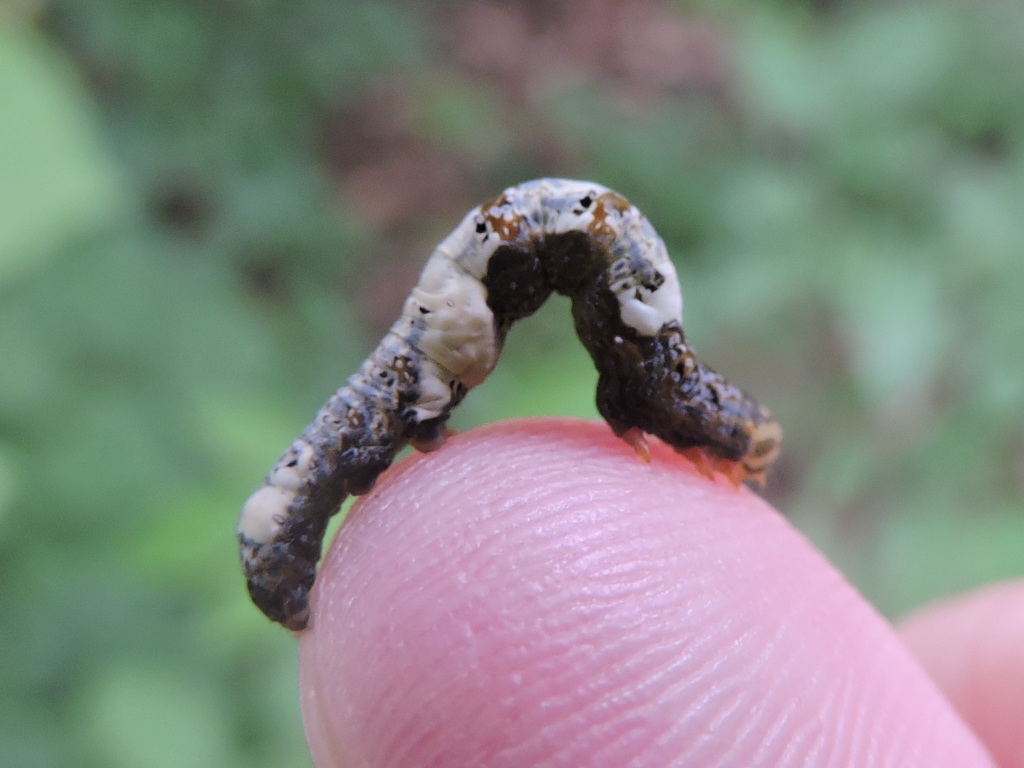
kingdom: Animalia
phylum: Arthropoda
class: Insecta
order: Lepidoptera
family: Erebidae
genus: Plusiodonta
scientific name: Plusiodonta compressipalpis
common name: Moonseed moth
